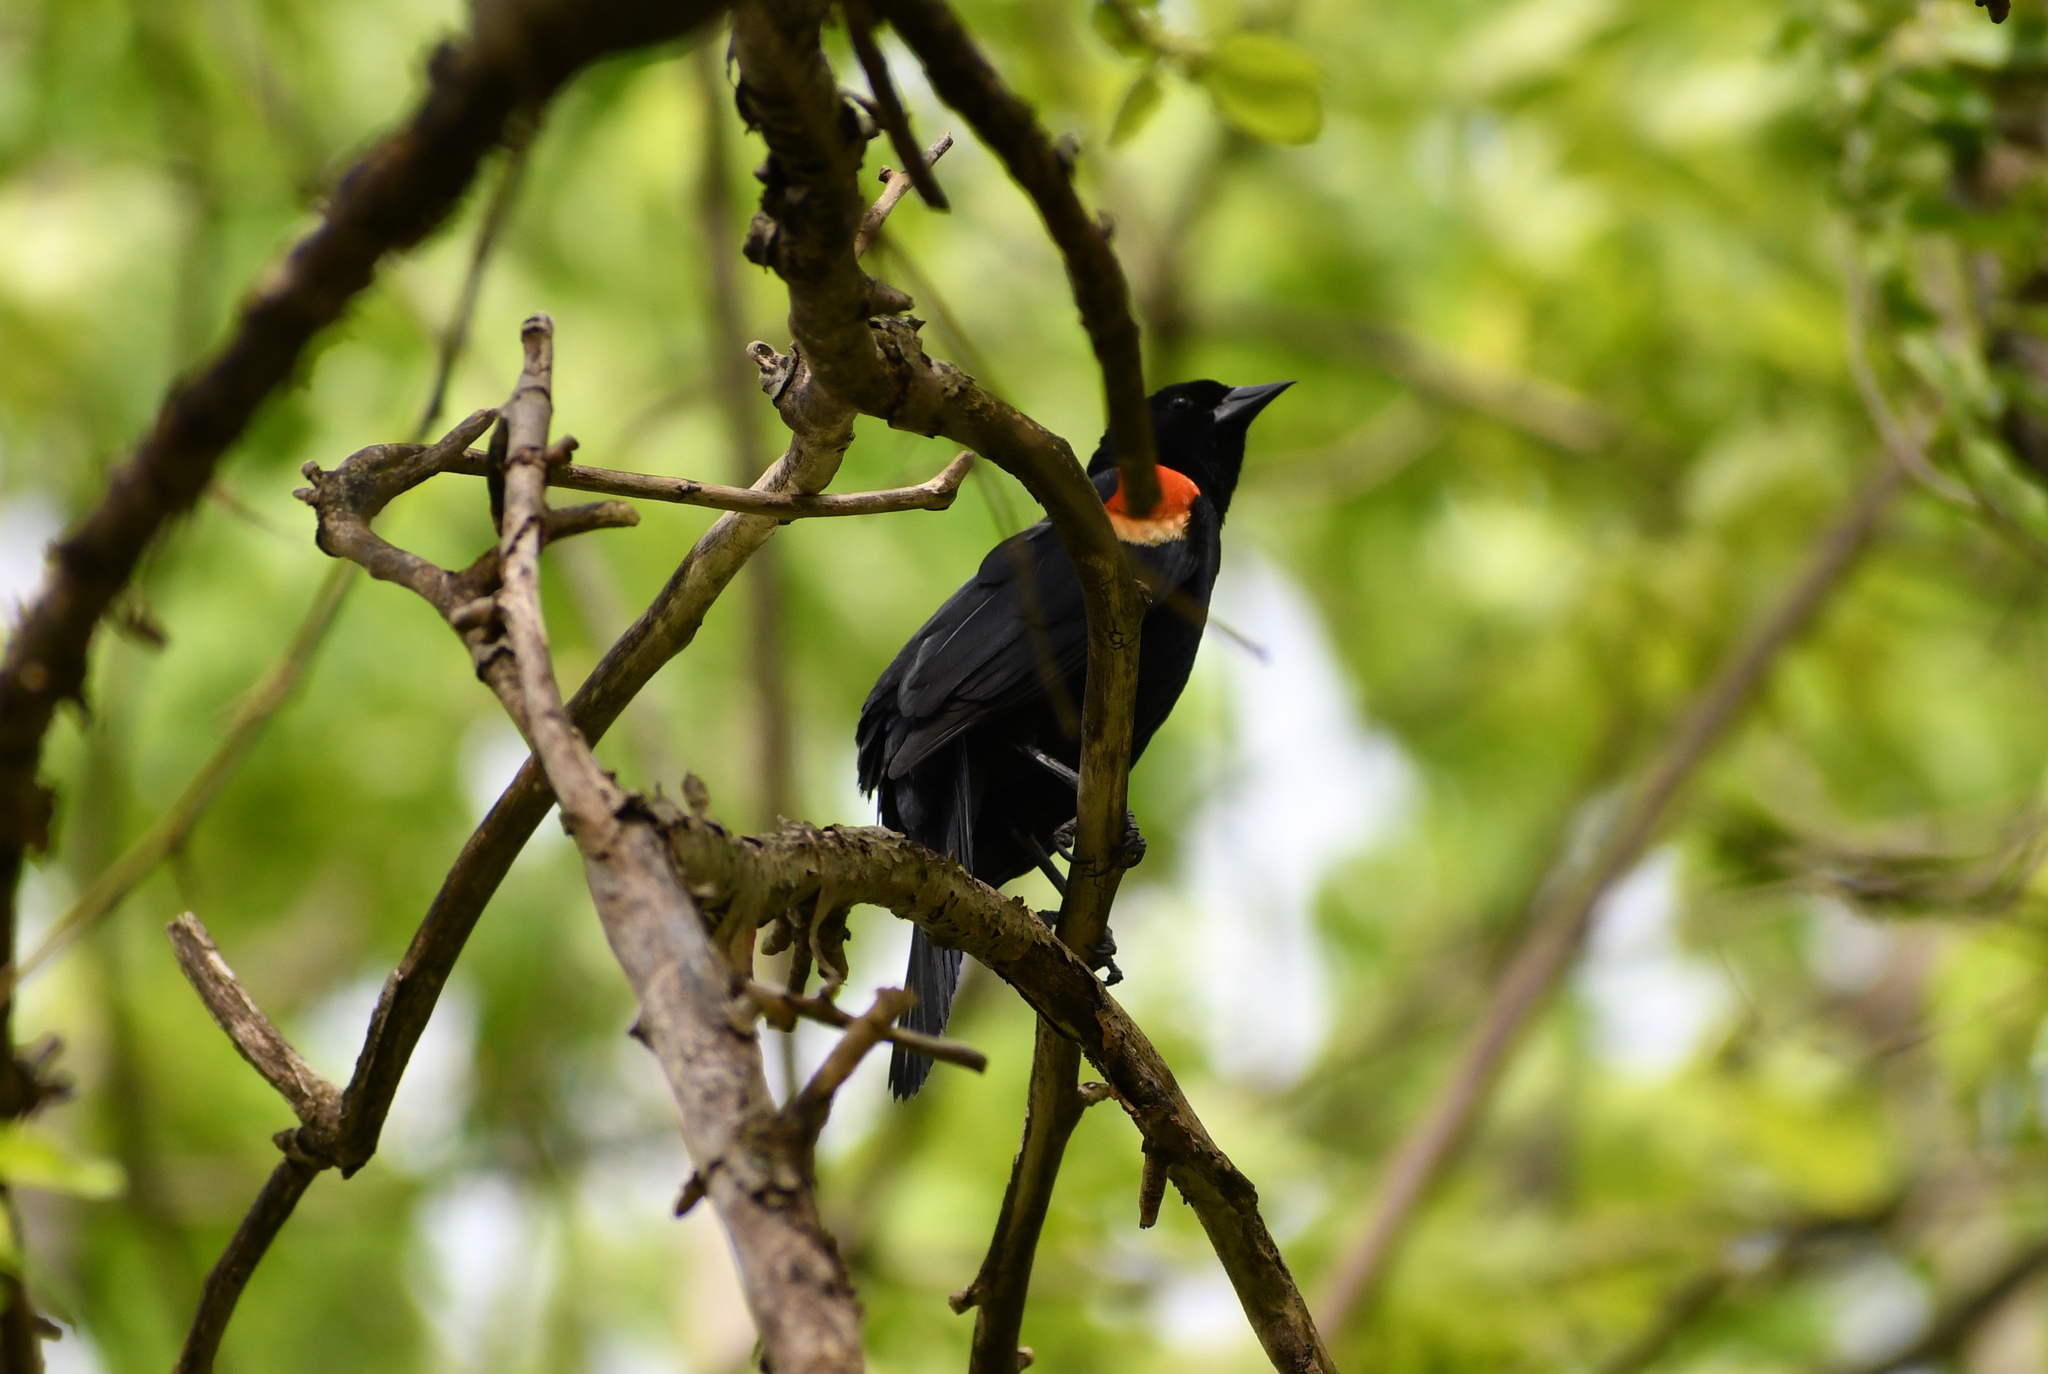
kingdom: Animalia
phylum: Chordata
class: Aves
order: Passeriformes
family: Icteridae
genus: Agelaius
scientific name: Agelaius phoeniceus
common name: Red-winged blackbird
